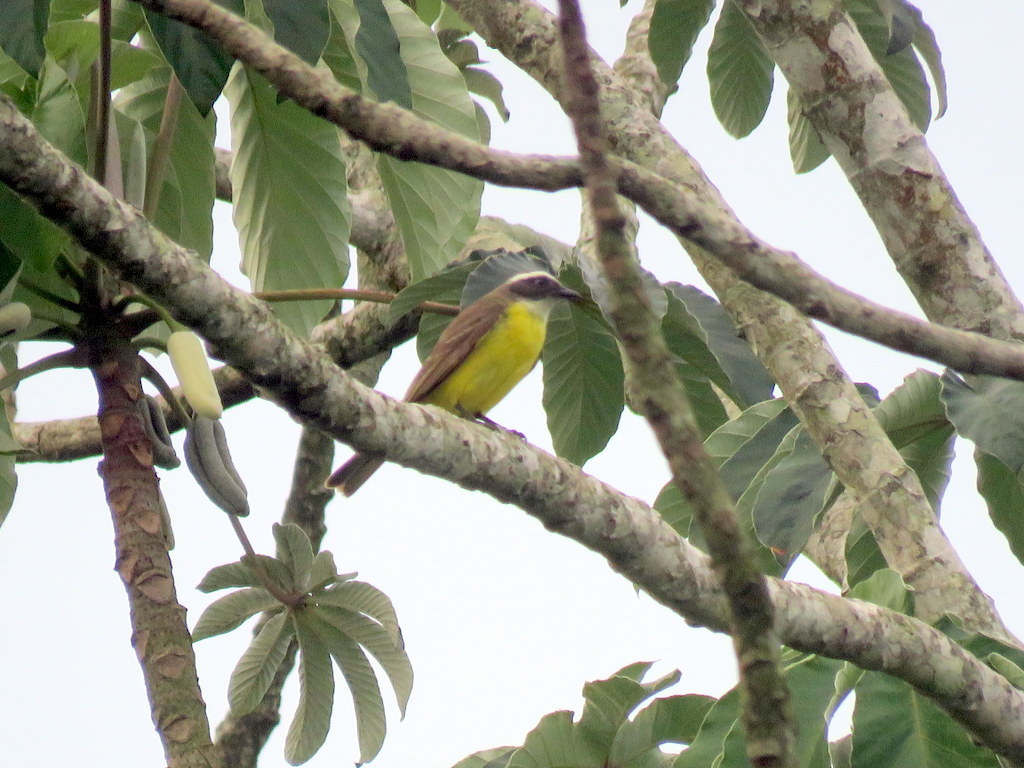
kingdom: Animalia
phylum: Chordata
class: Aves
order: Passeriformes
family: Tyrannidae
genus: Myiozetetes
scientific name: Myiozetetes similis
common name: Social flycatcher
